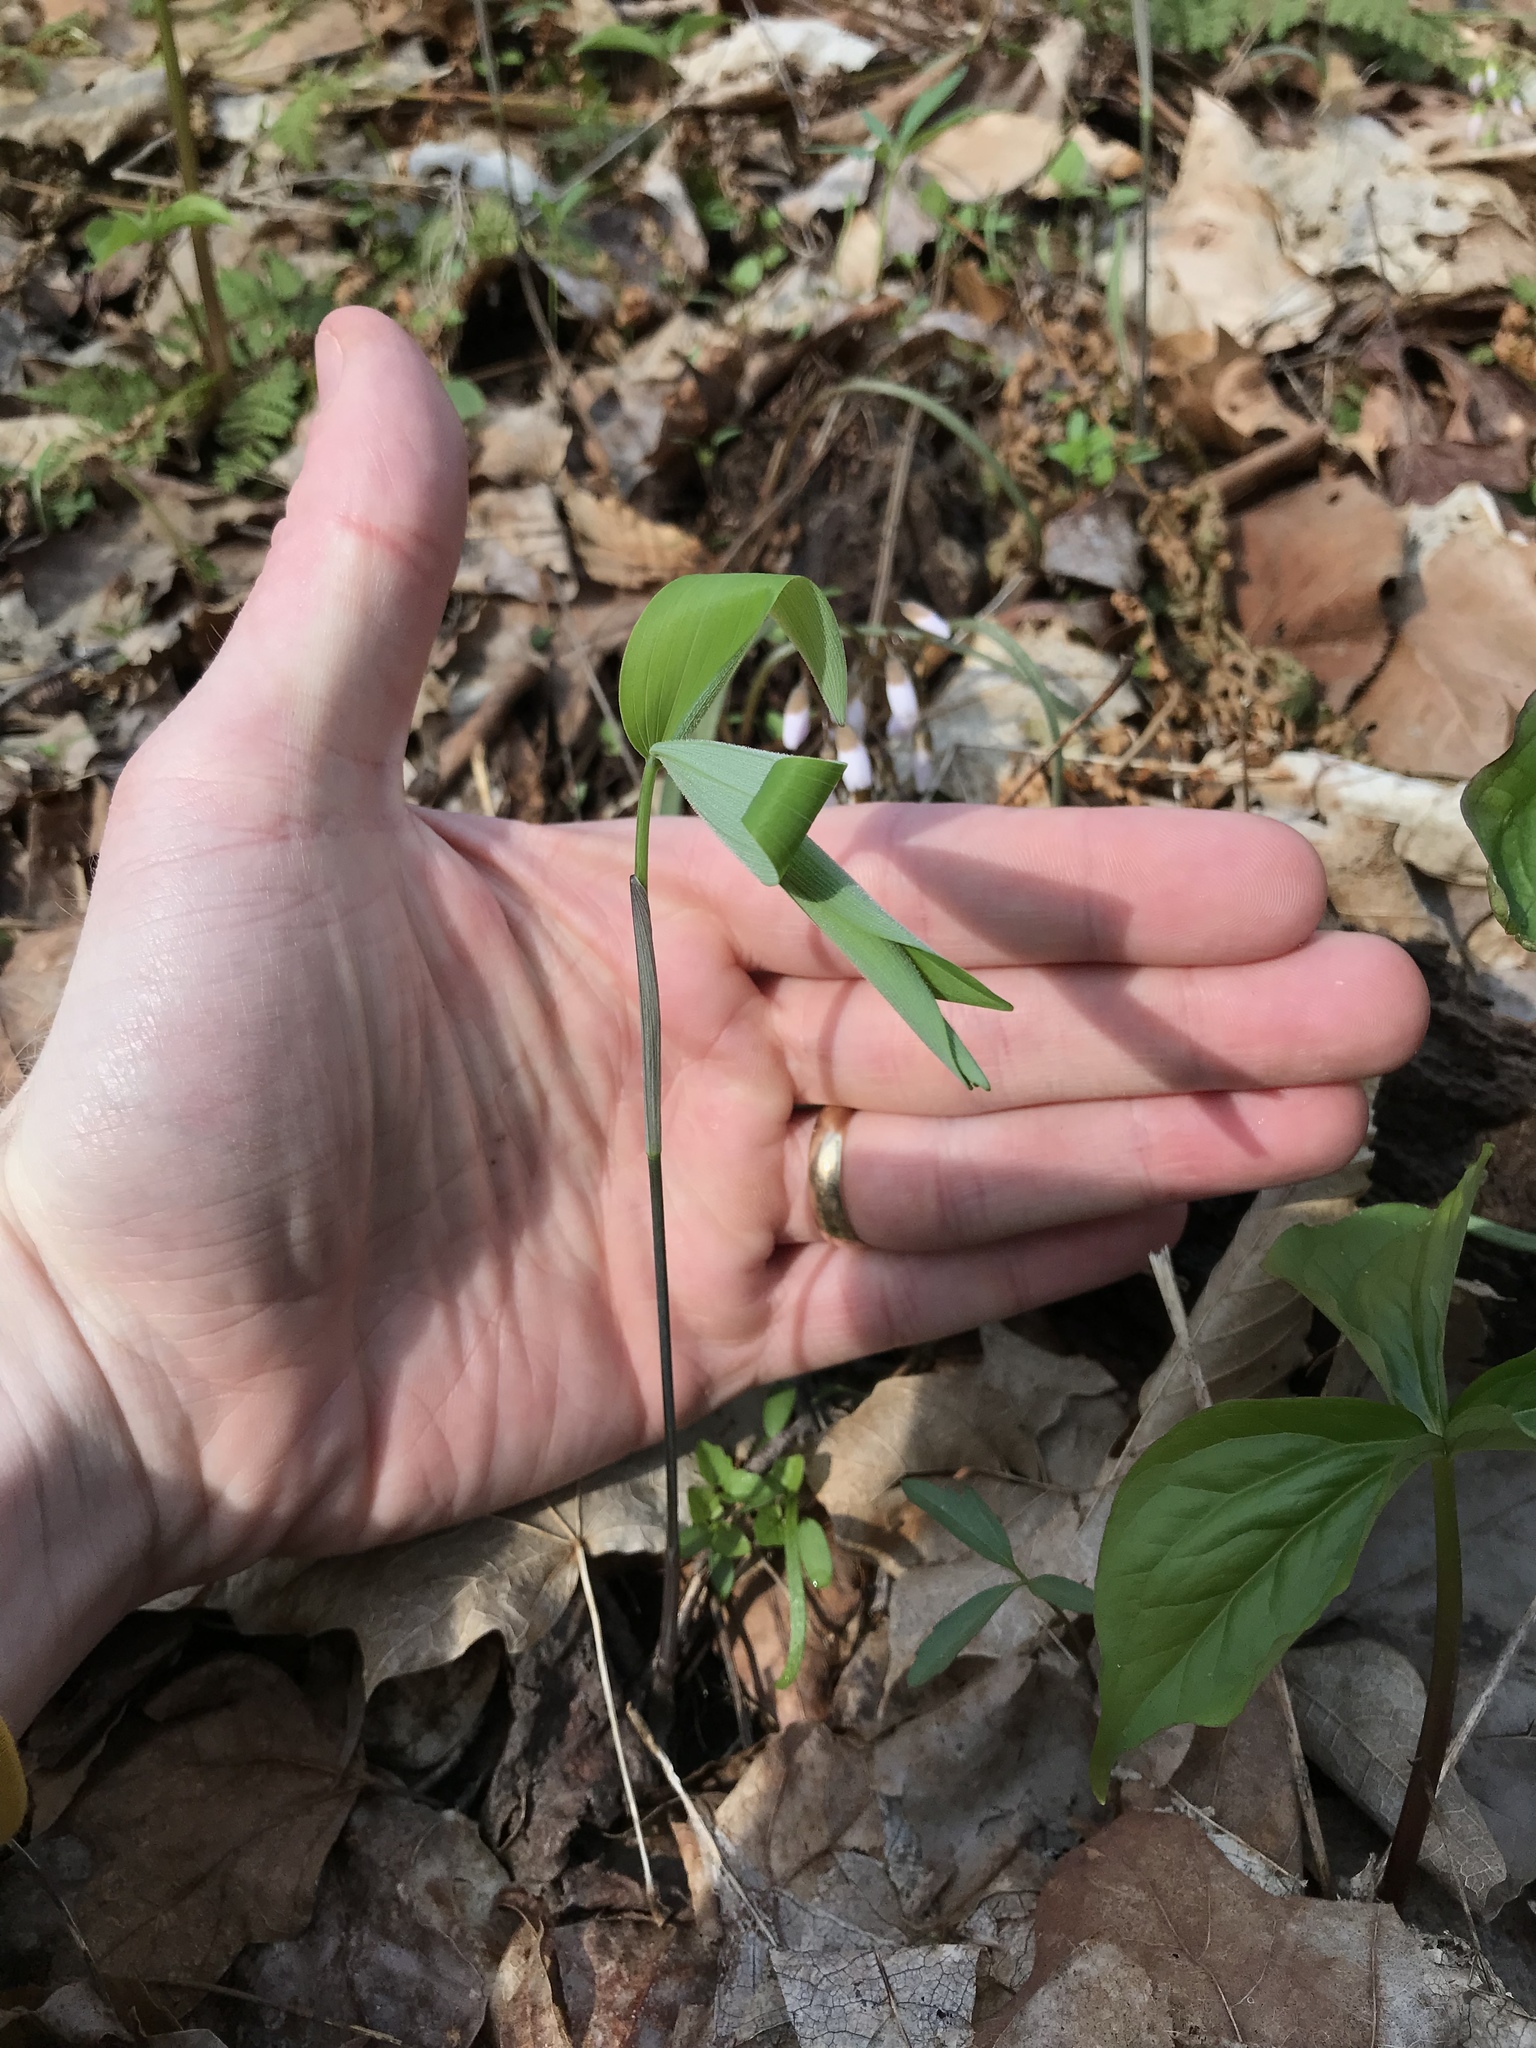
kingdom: Plantae
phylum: Tracheophyta
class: Liliopsida
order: Asparagales
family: Asparagaceae
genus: Polygonatum
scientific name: Polygonatum pubescens
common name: Downy solomon's seal
